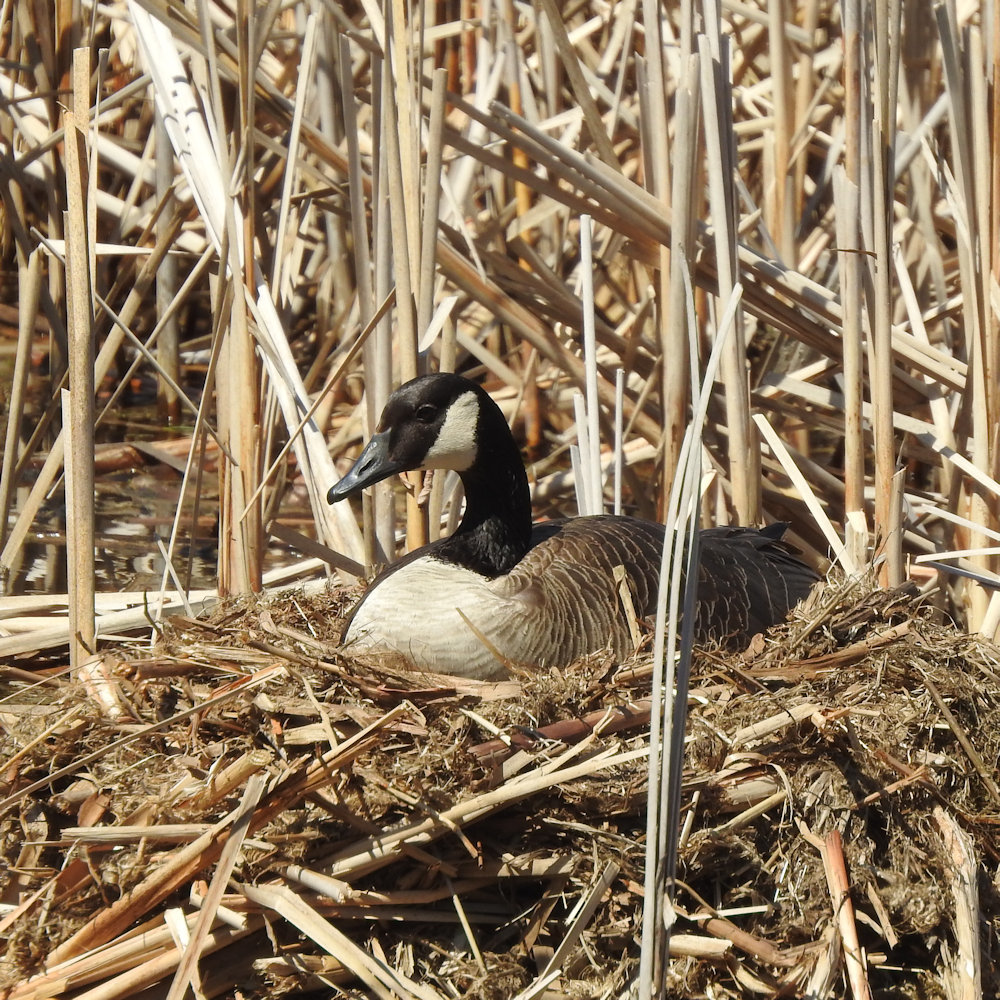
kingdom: Animalia
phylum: Chordata
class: Aves
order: Anseriformes
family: Anatidae
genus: Branta
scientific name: Branta canadensis
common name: Canada goose
